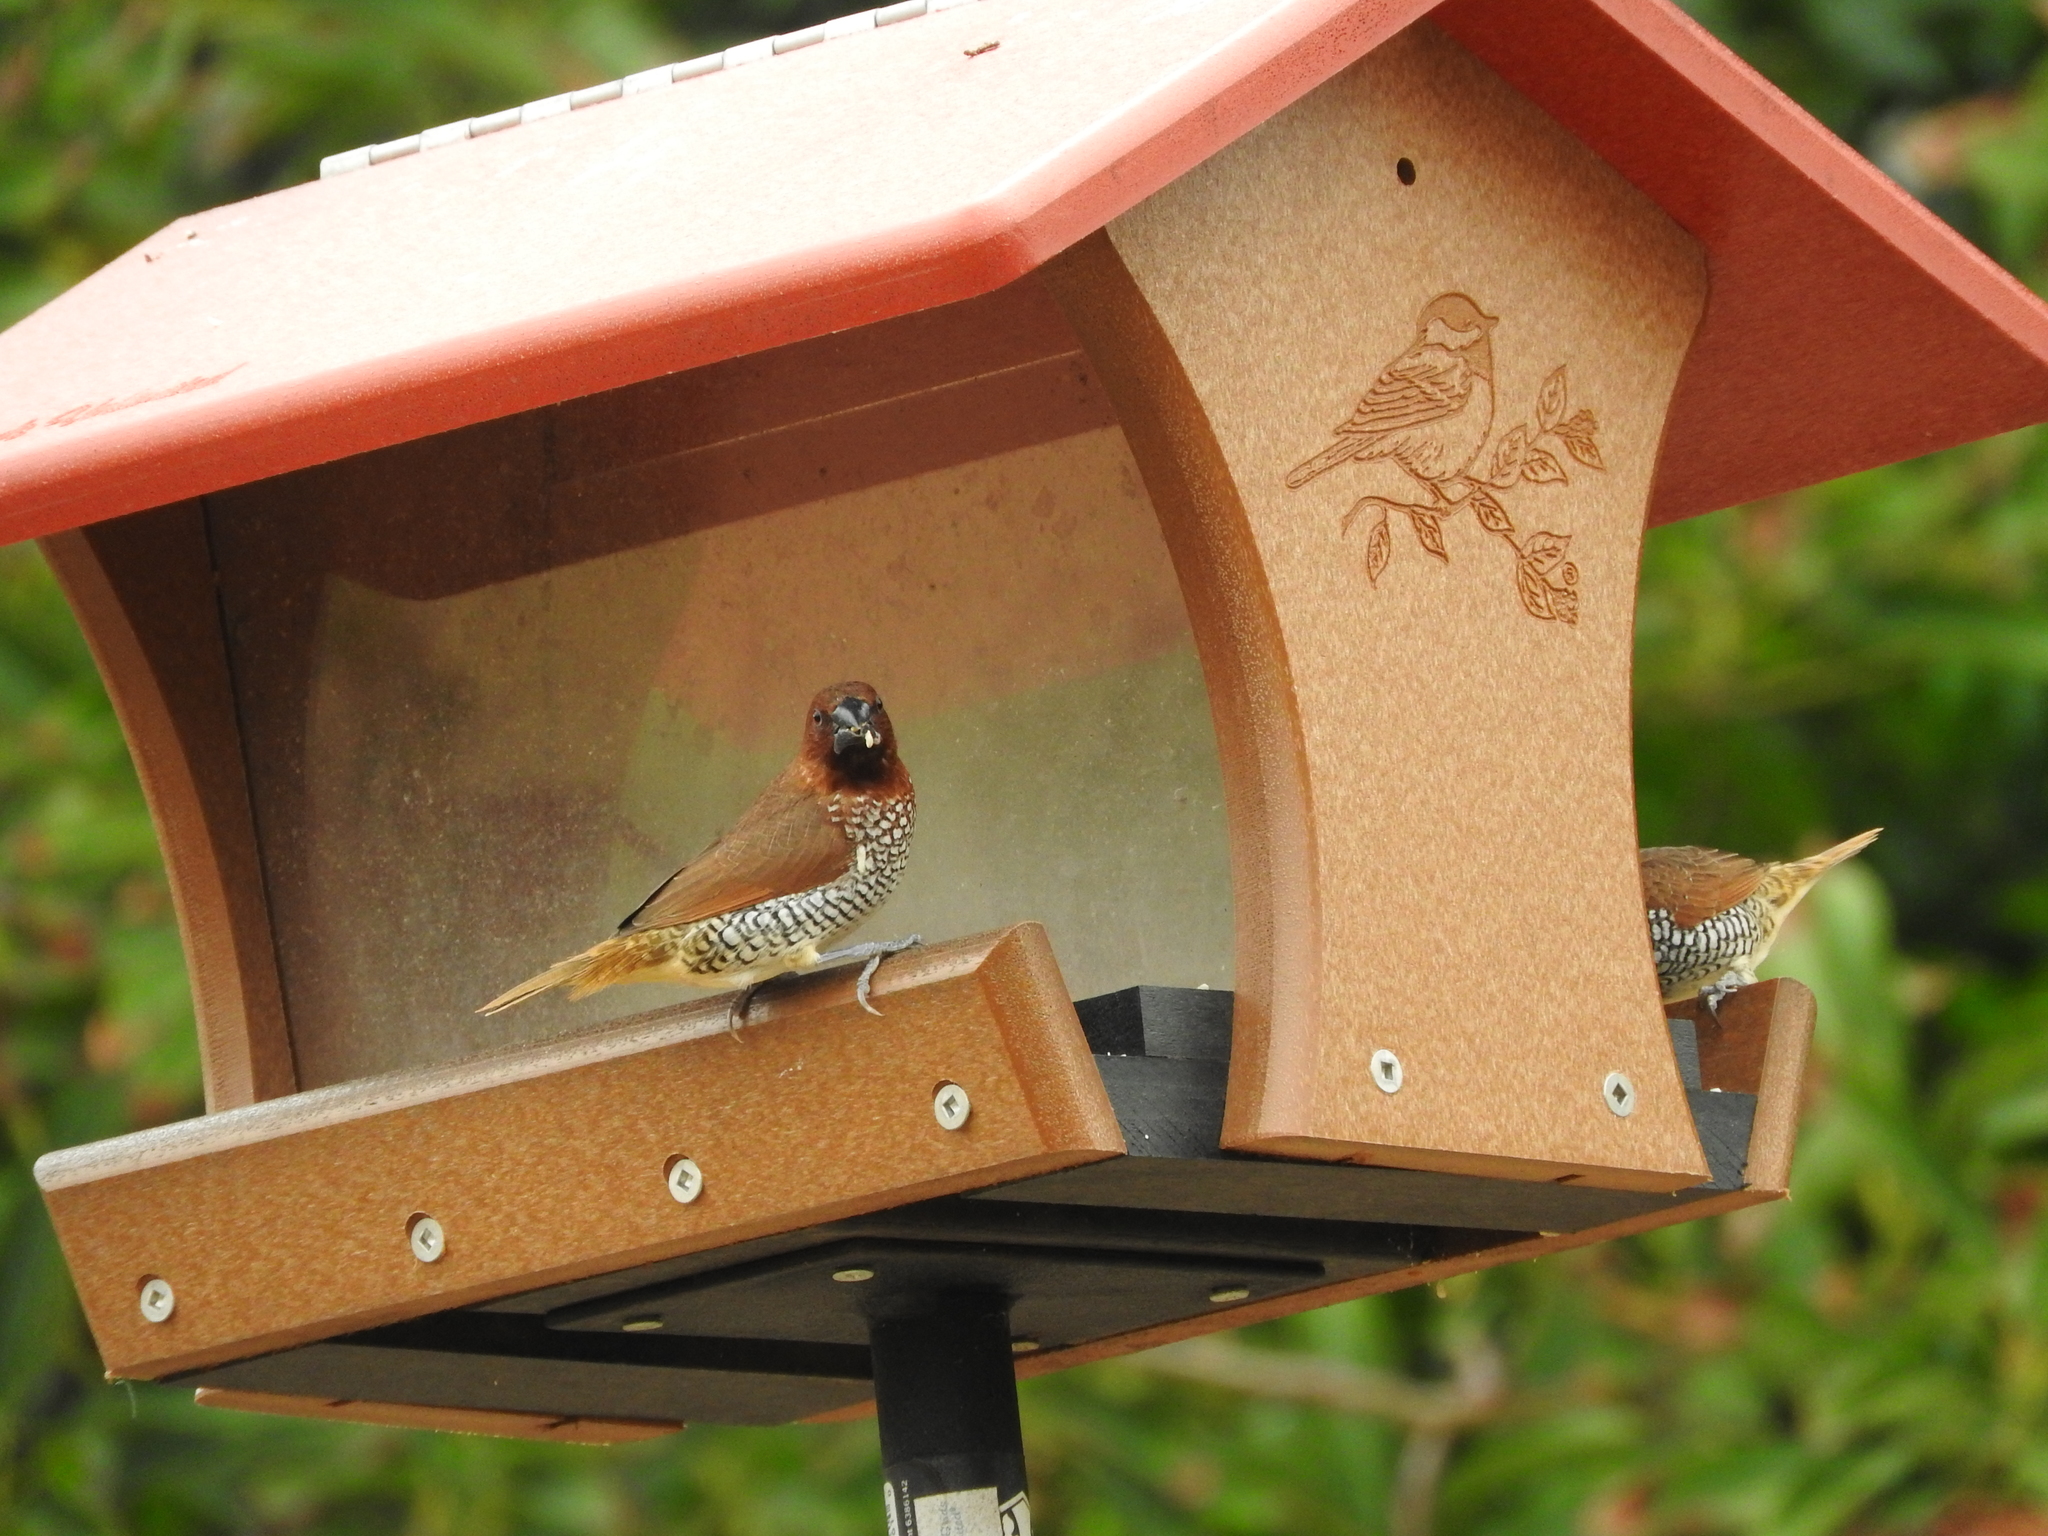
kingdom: Animalia
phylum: Chordata
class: Aves
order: Passeriformes
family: Estrildidae
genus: Lonchura
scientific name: Lonchura punctulata
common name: Scaly-breasted munia
